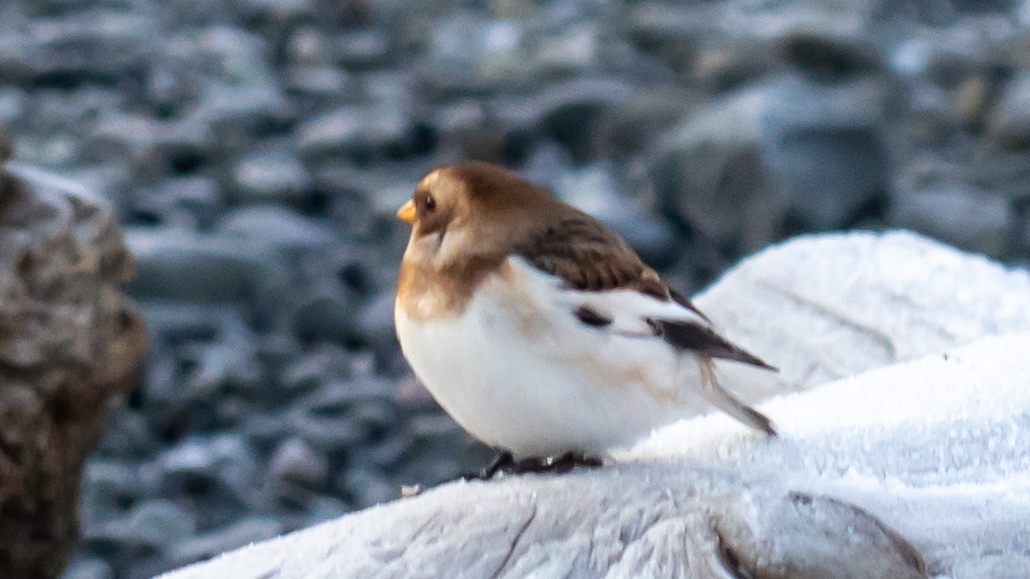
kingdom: Animalia
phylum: Chordata
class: Aves
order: Passeriformes
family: Calcariidae
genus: Plectrophenax
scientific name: Plectrophenax nivalis
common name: Snow bunting
